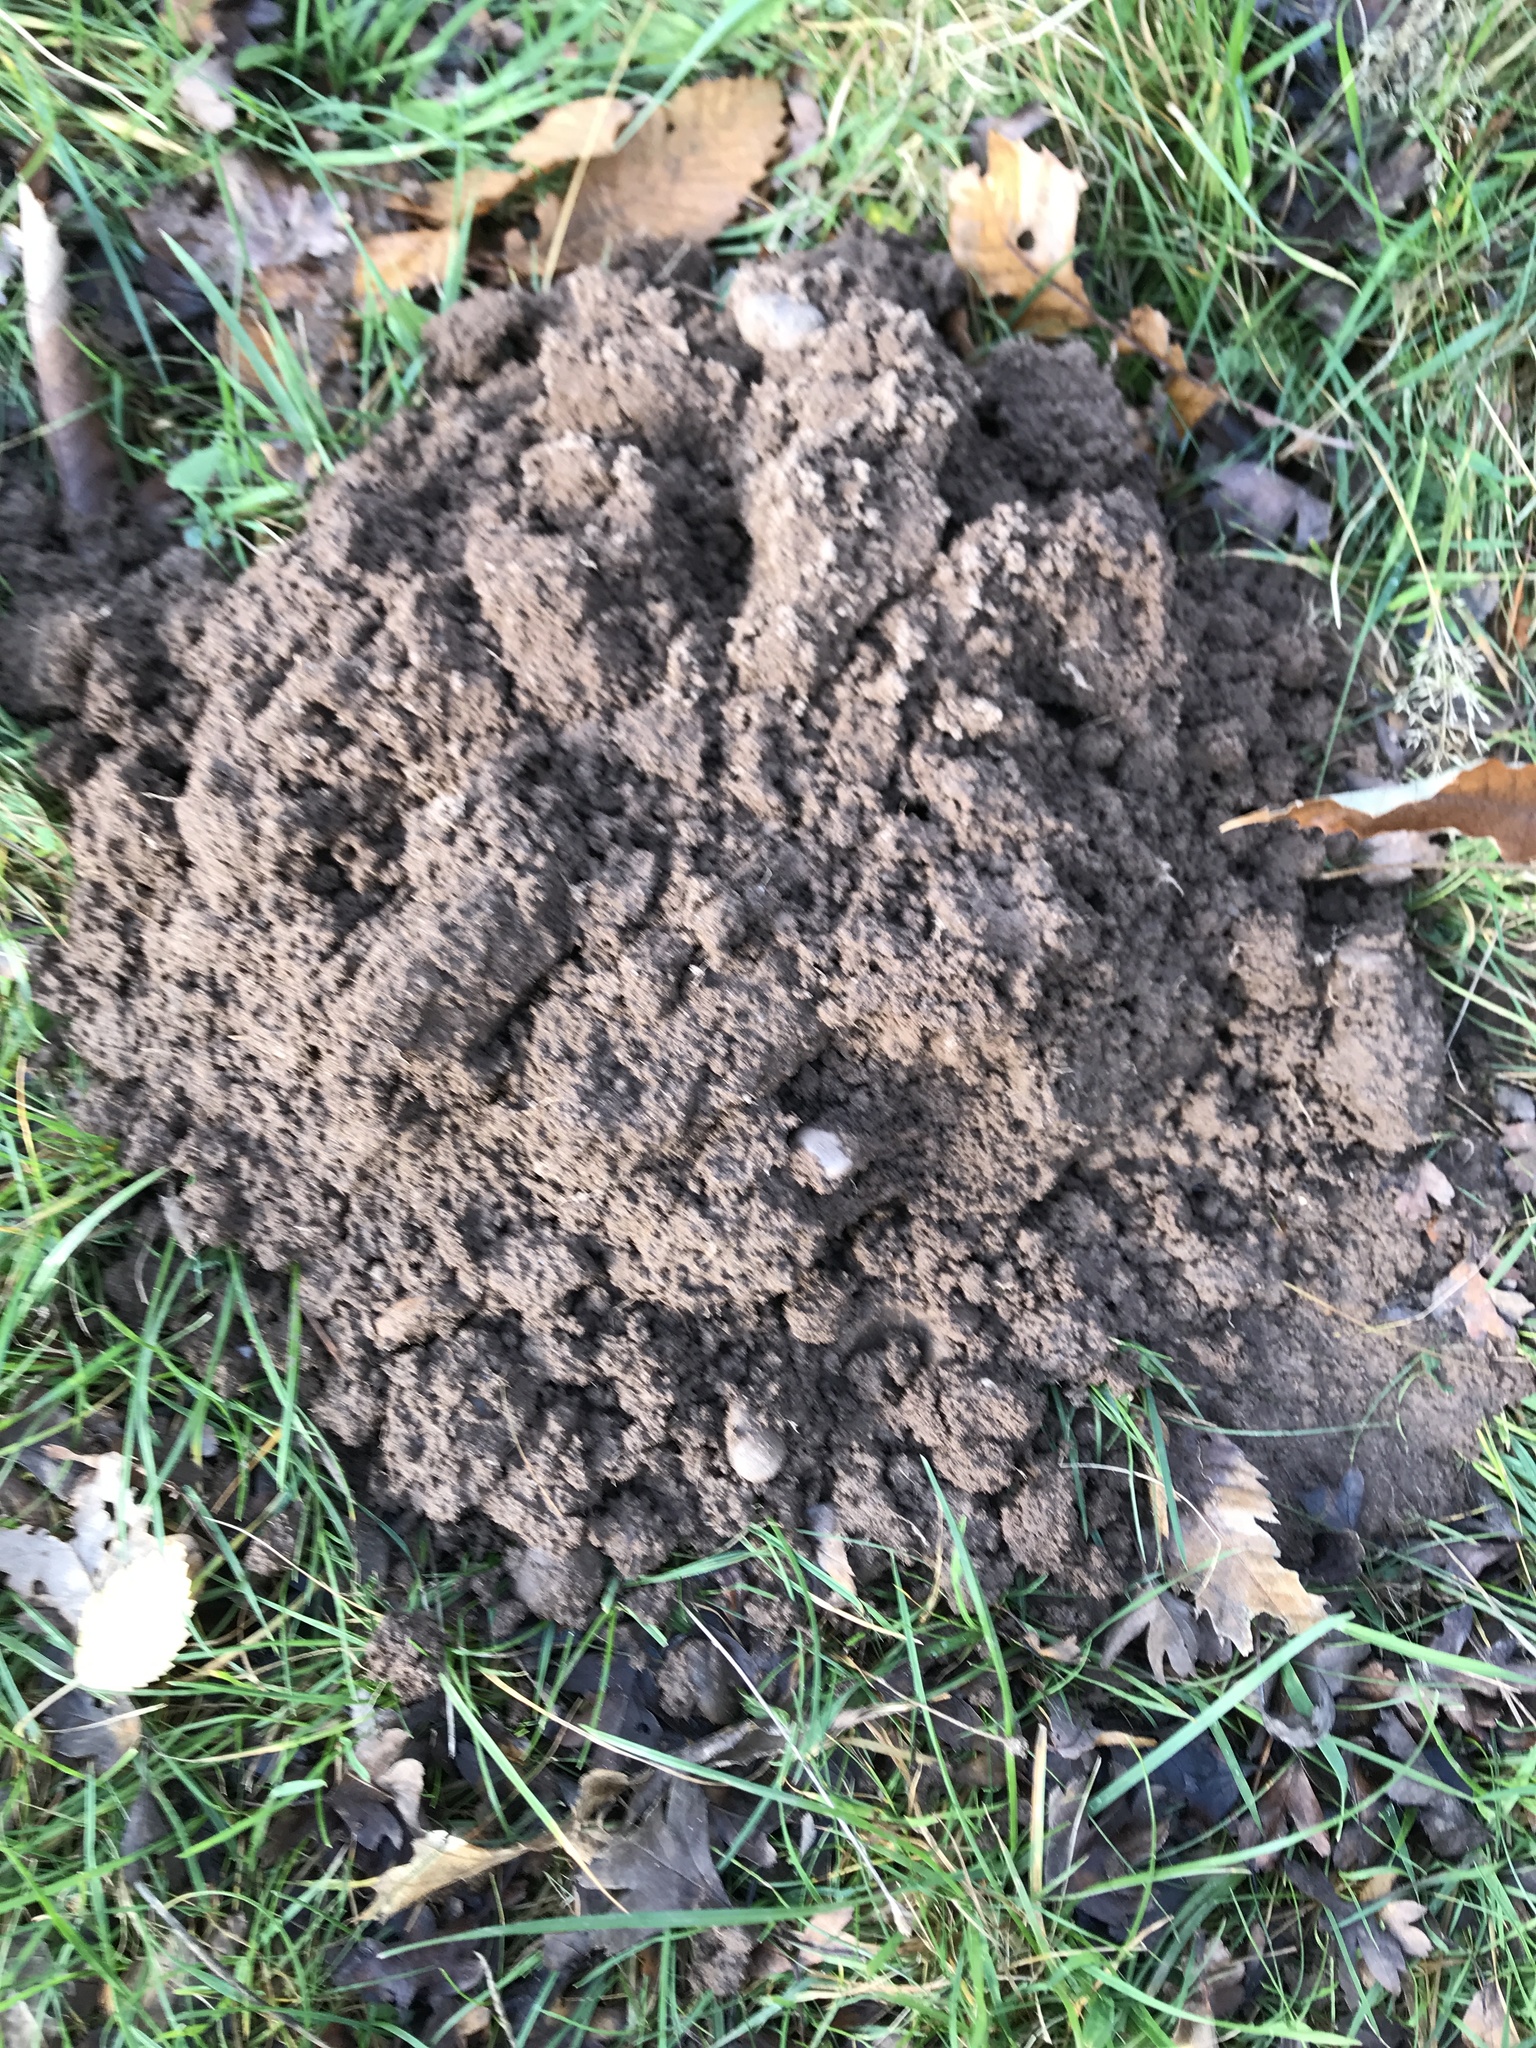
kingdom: Animalia
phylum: Chordata
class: Mammalia
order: Soricomorpha
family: Talpidae
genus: Talpa
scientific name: Talpa europaea
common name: European mole
